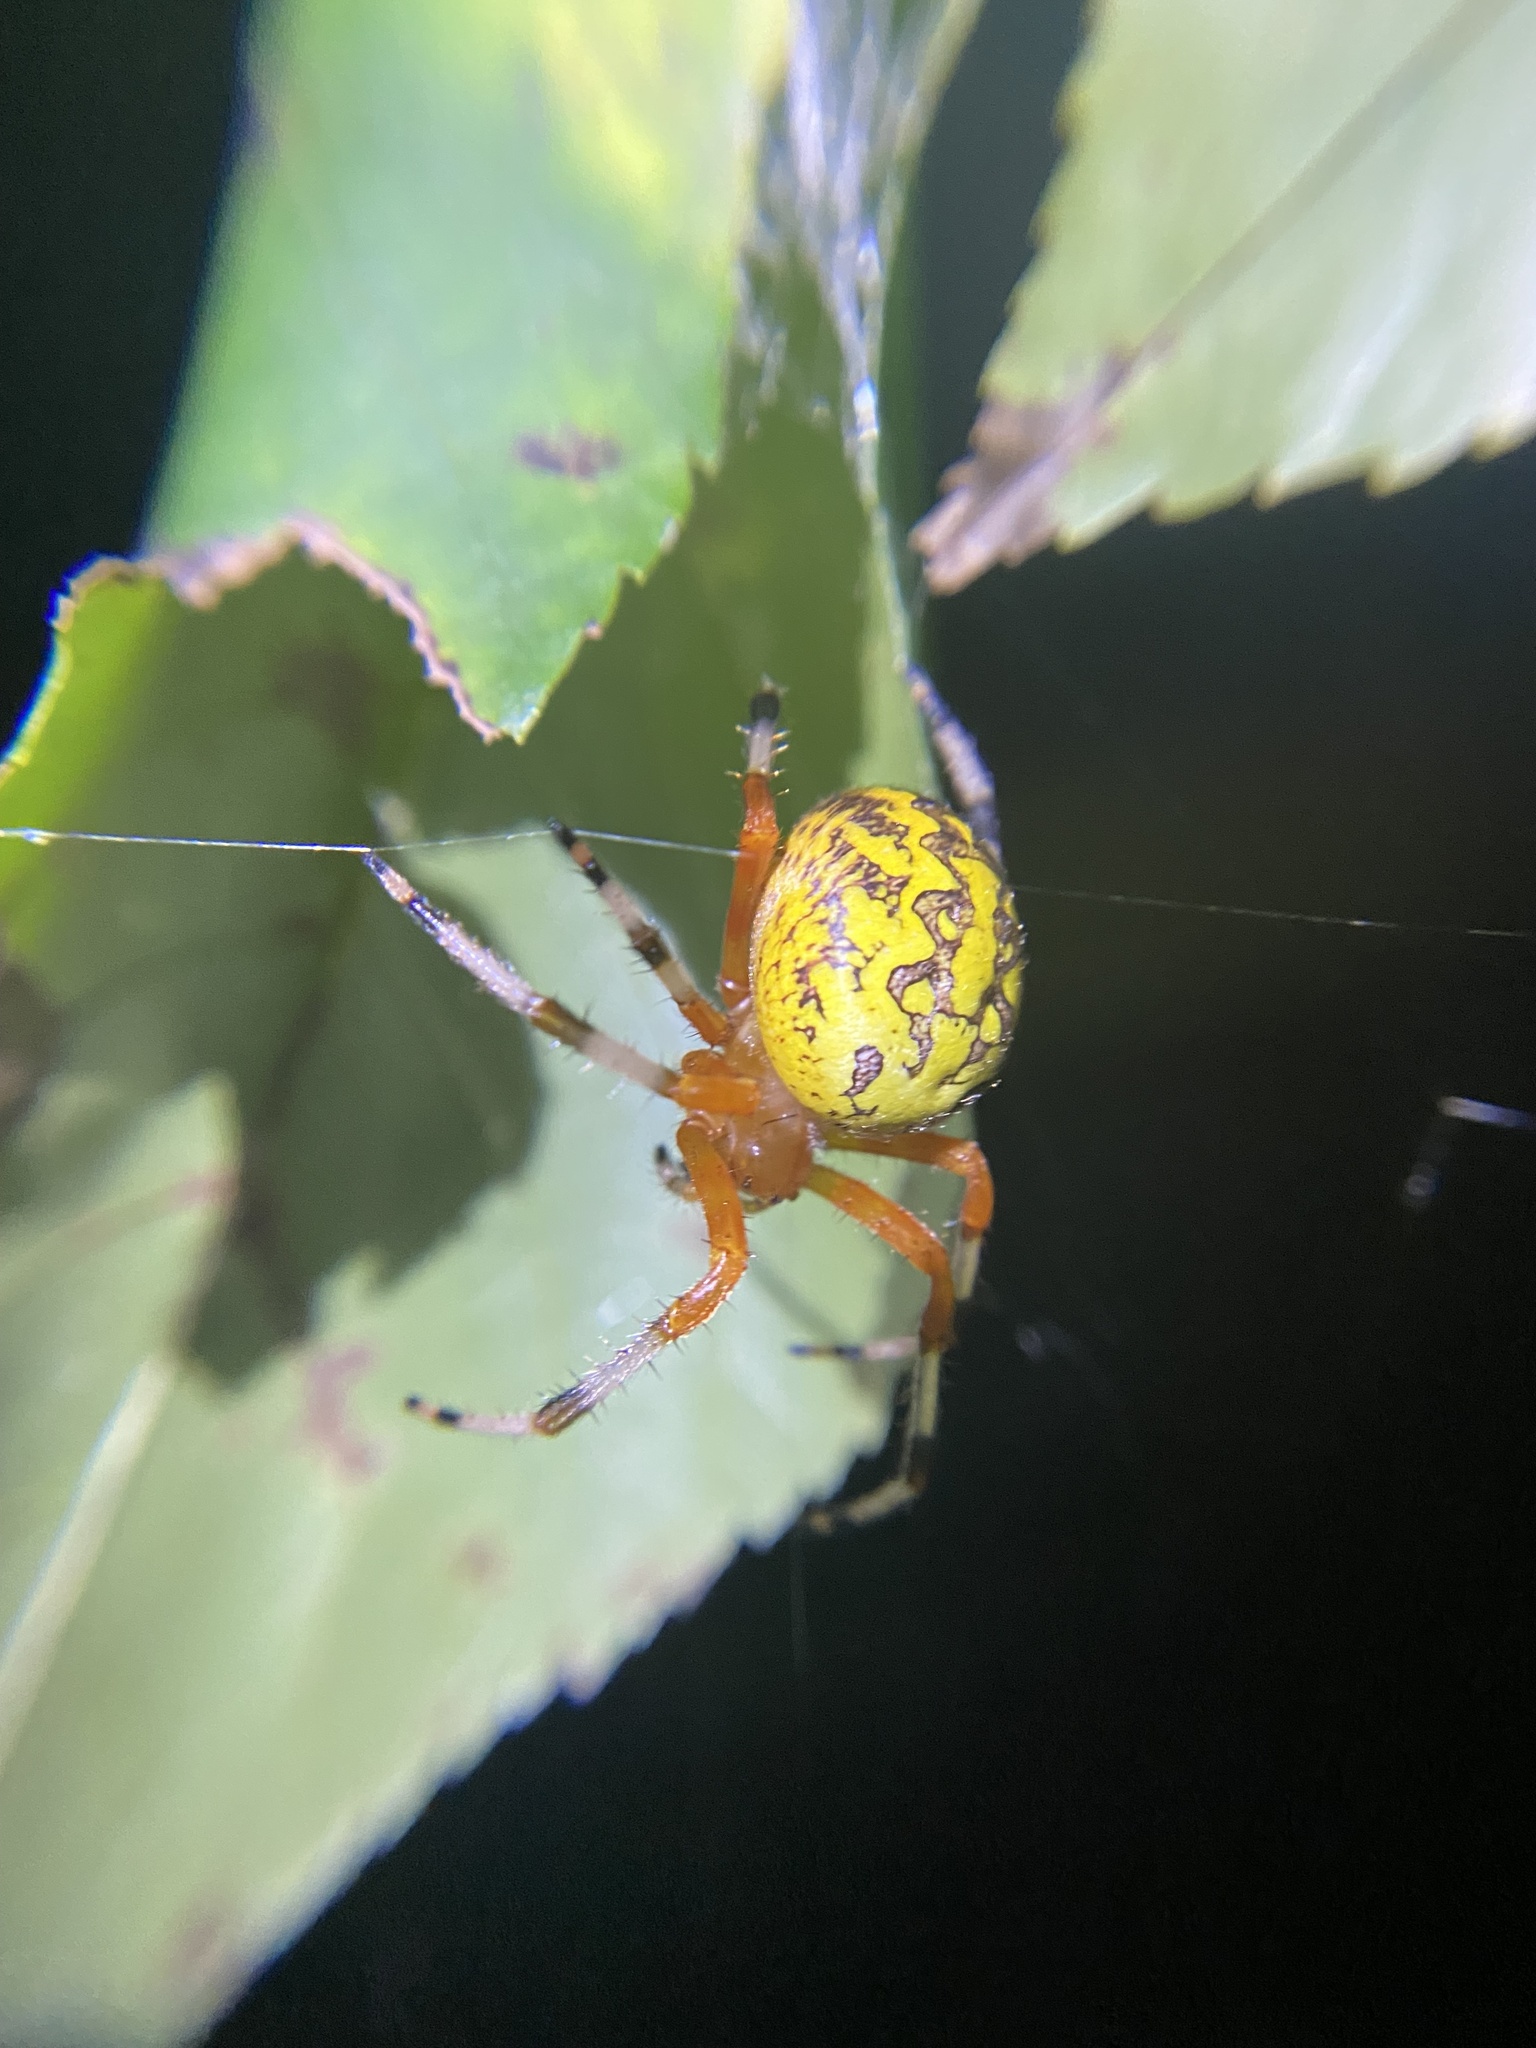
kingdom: Animalia
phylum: Arthropoda
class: Arachnida
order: Araneae
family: Araneidae
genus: Araneus
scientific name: Araneus marmoreus
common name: Marbled orbweaver
